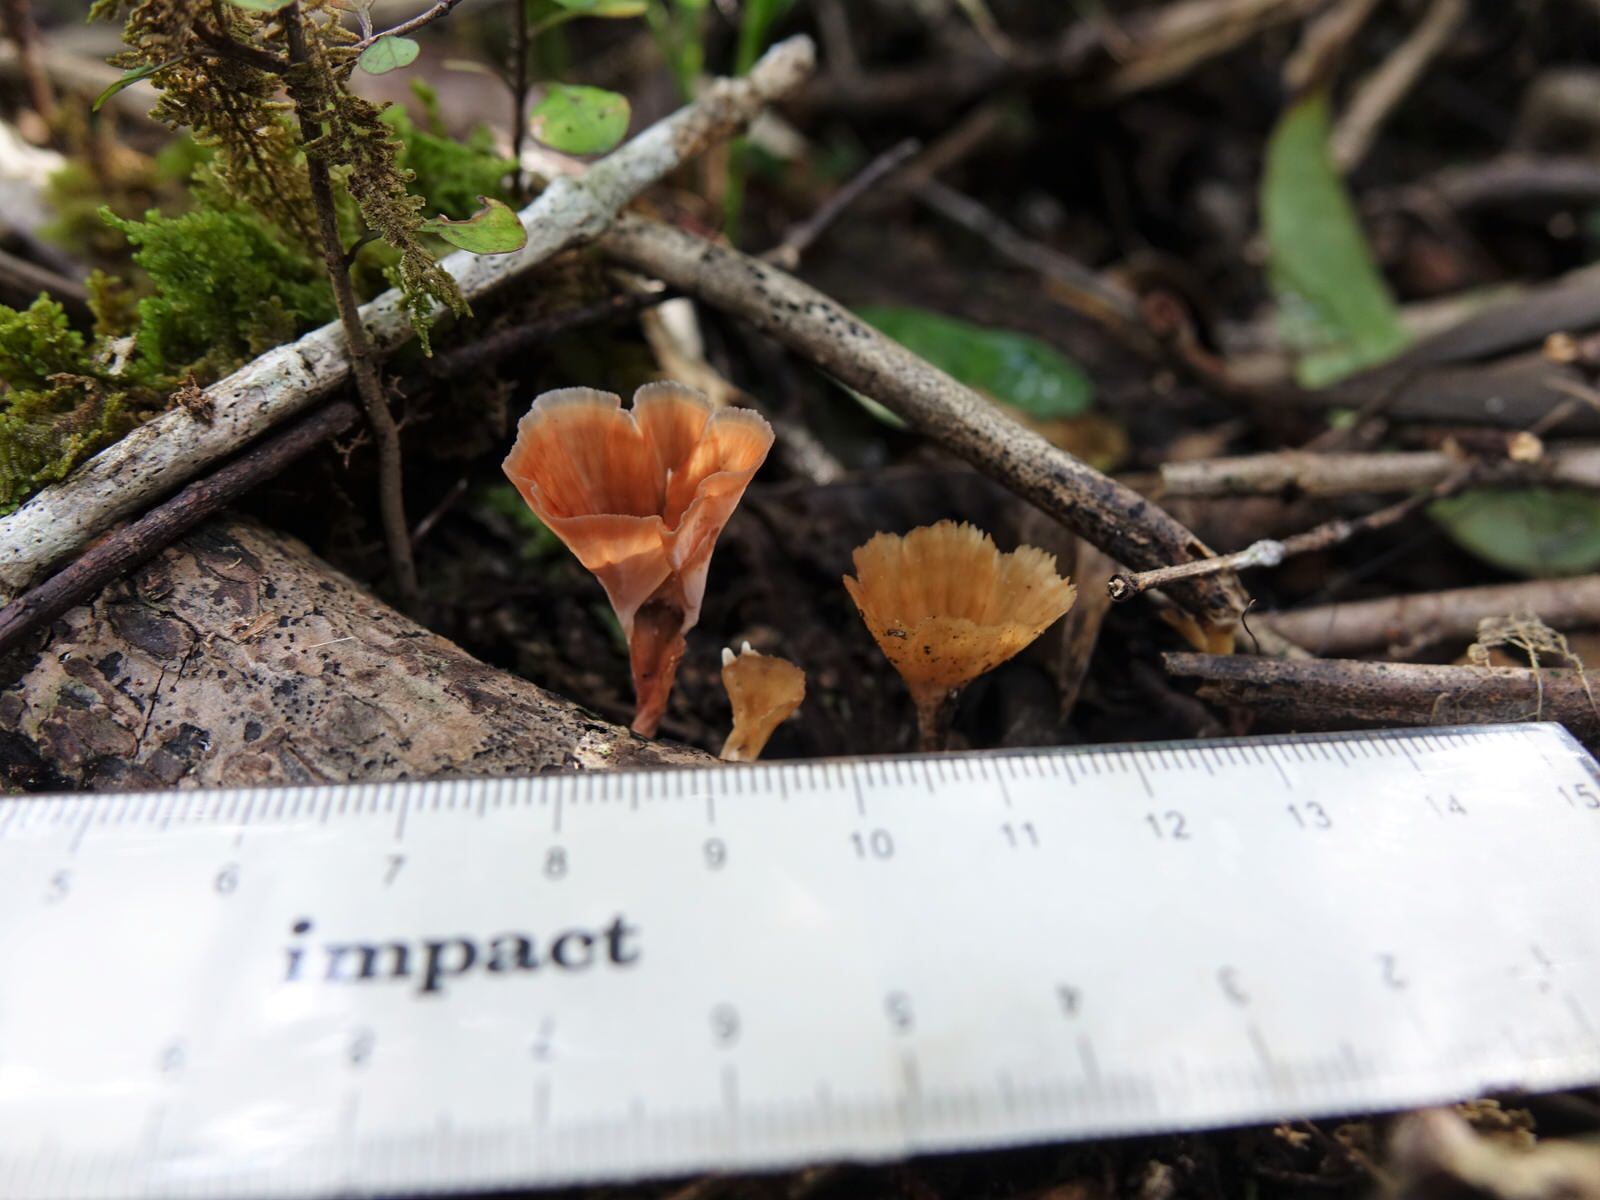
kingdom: Fungi
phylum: Basidiomycota
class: Agaricomycetes
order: Polyporales
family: Podoscyphaceae
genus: Podoscypha
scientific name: Podoscypha petalodes
